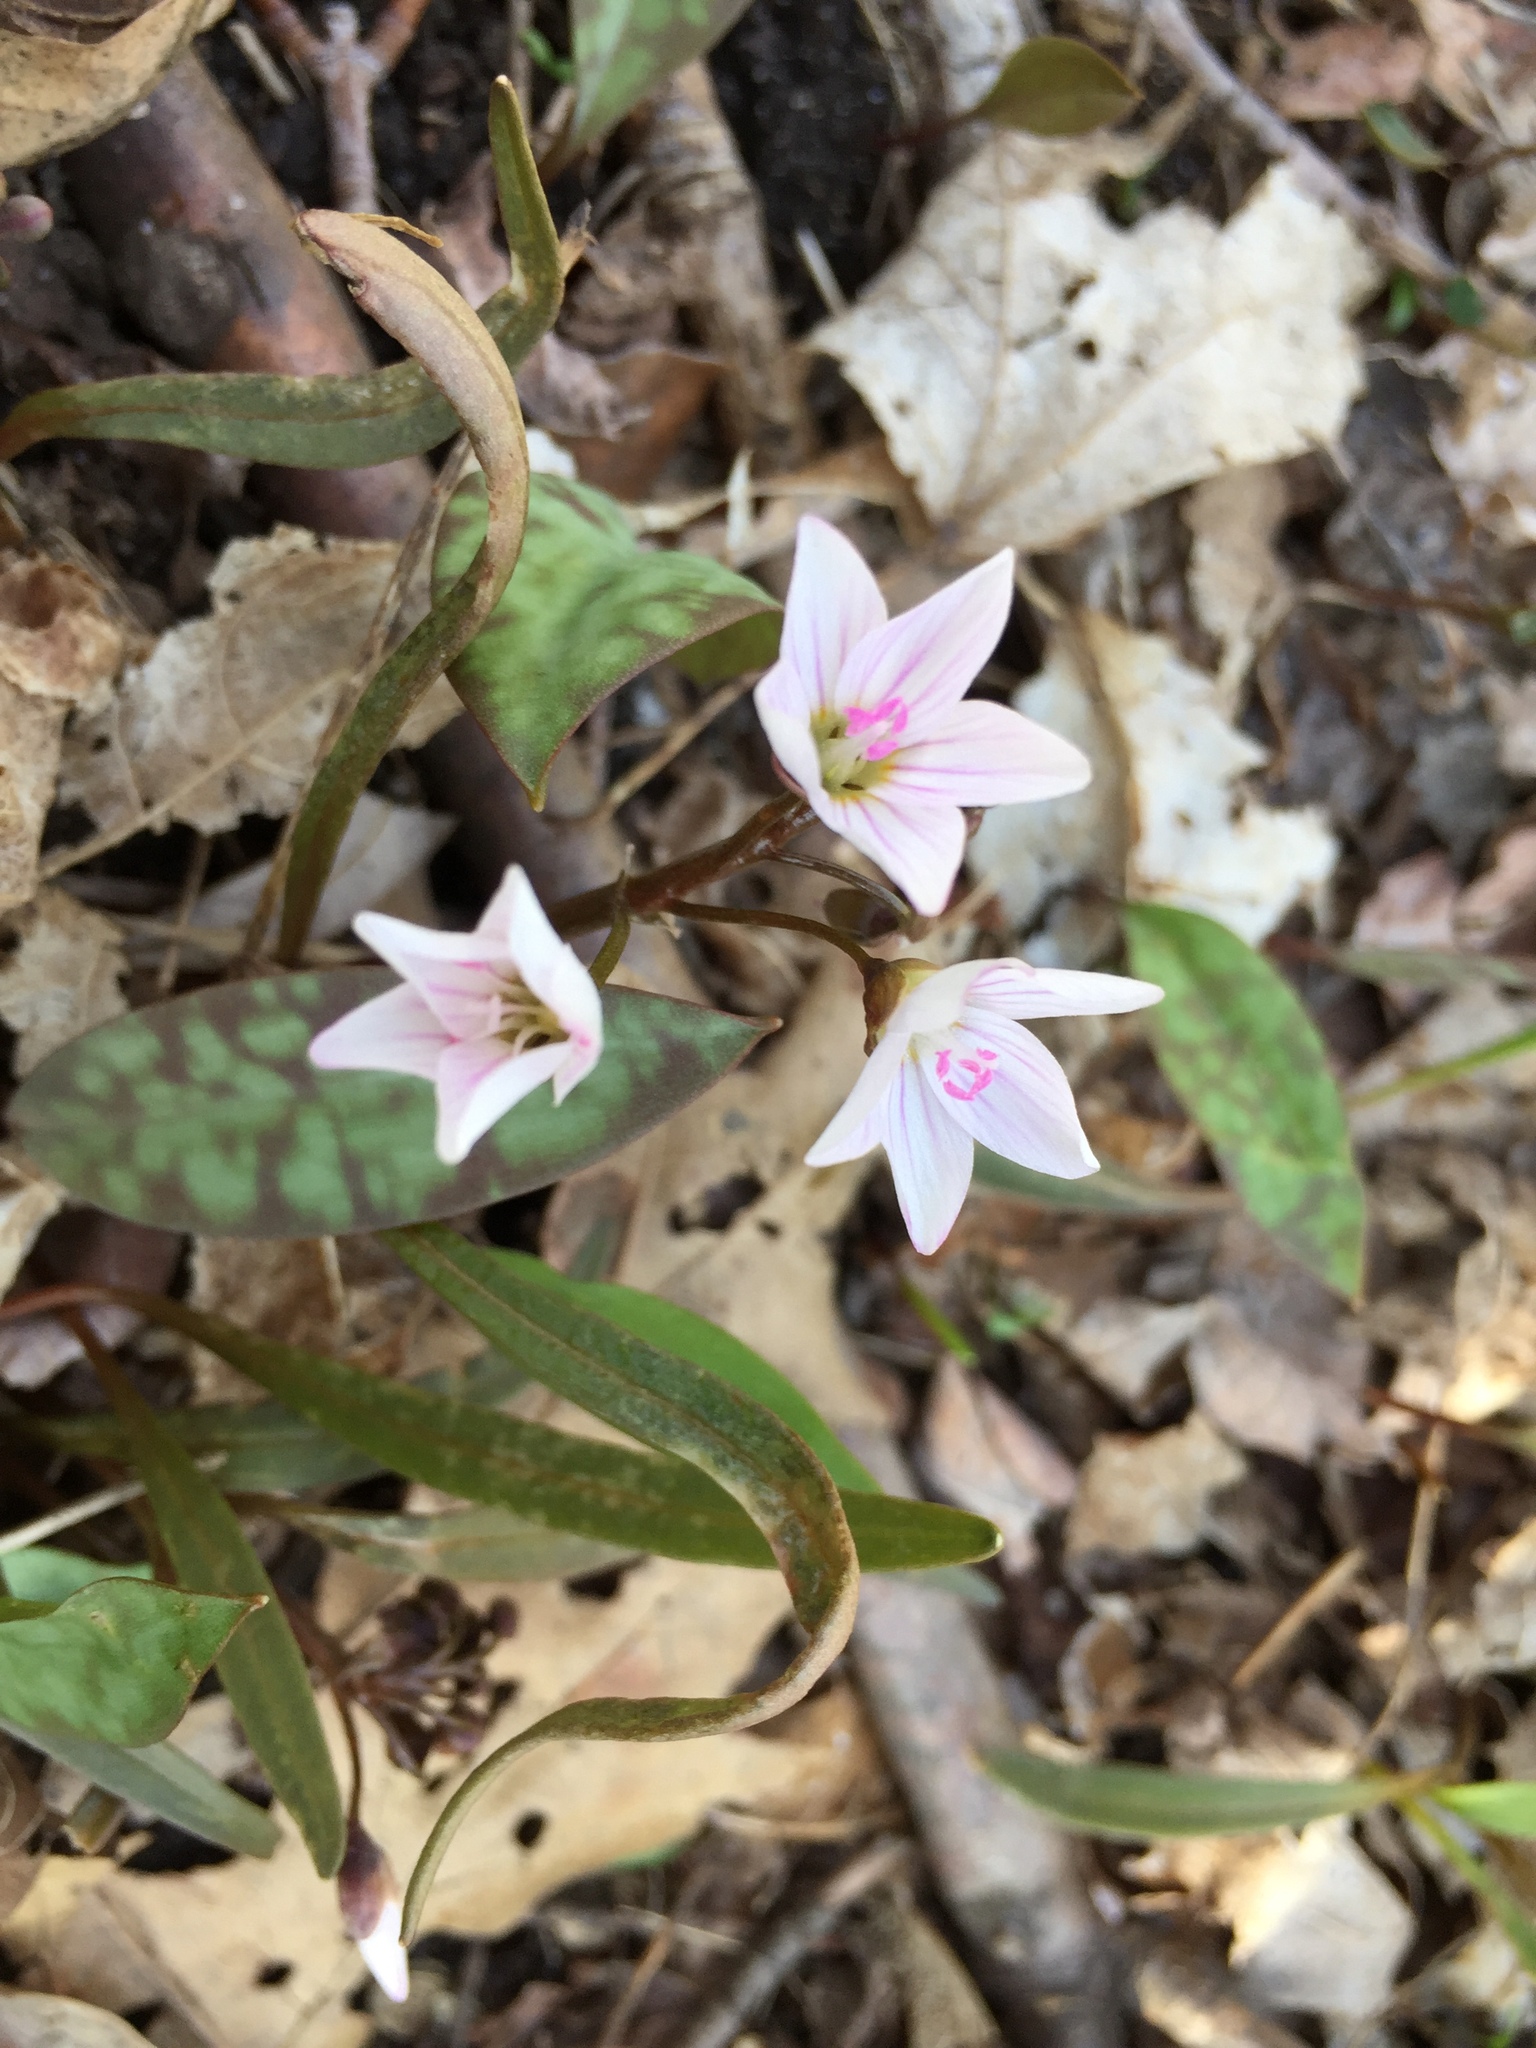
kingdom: Plantae
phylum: Tracheophyta
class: Magnoliopsida
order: Caryophyllales
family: Montiaceae
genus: Claytonia
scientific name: Claytonia virginica
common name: Virginia springbeauty
